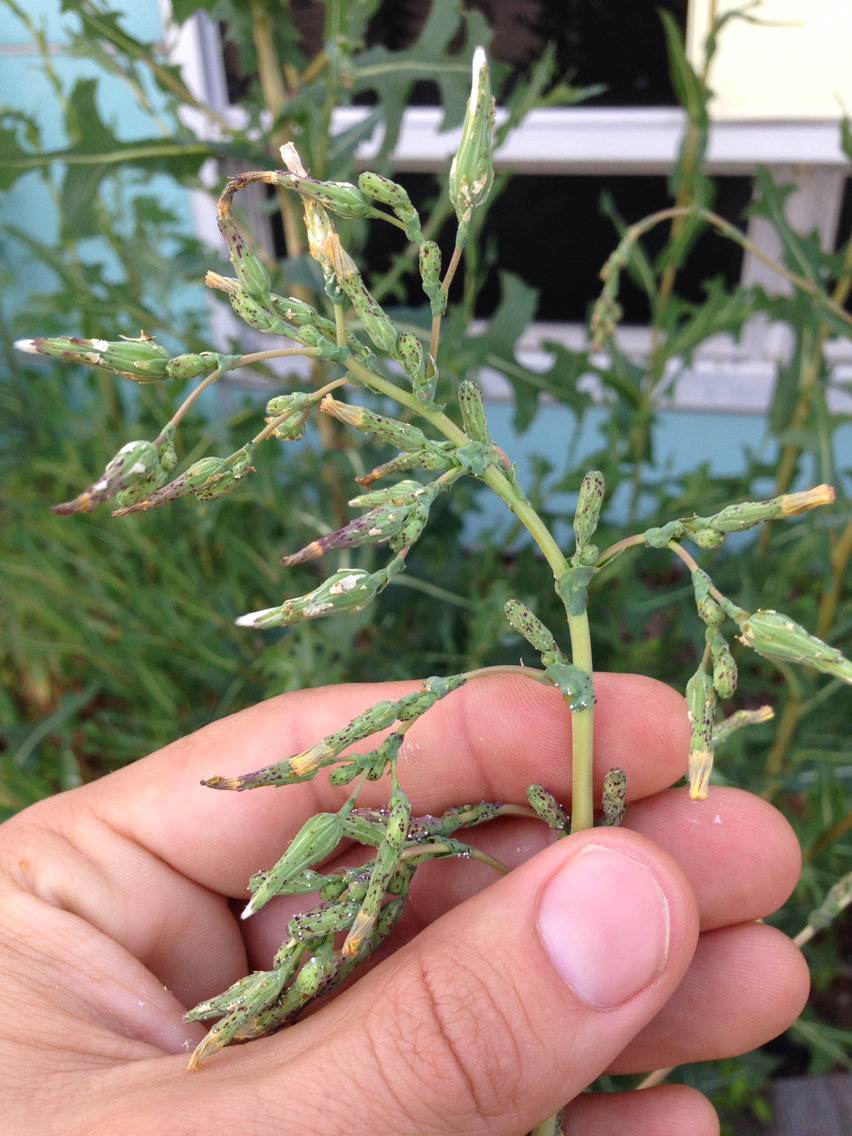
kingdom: Plantae
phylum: Tracheophyta
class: Magnoliopsida
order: Asterales
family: Asteraceae
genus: Lactuca
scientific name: Lactuca serriola
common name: Prickly lettuce
